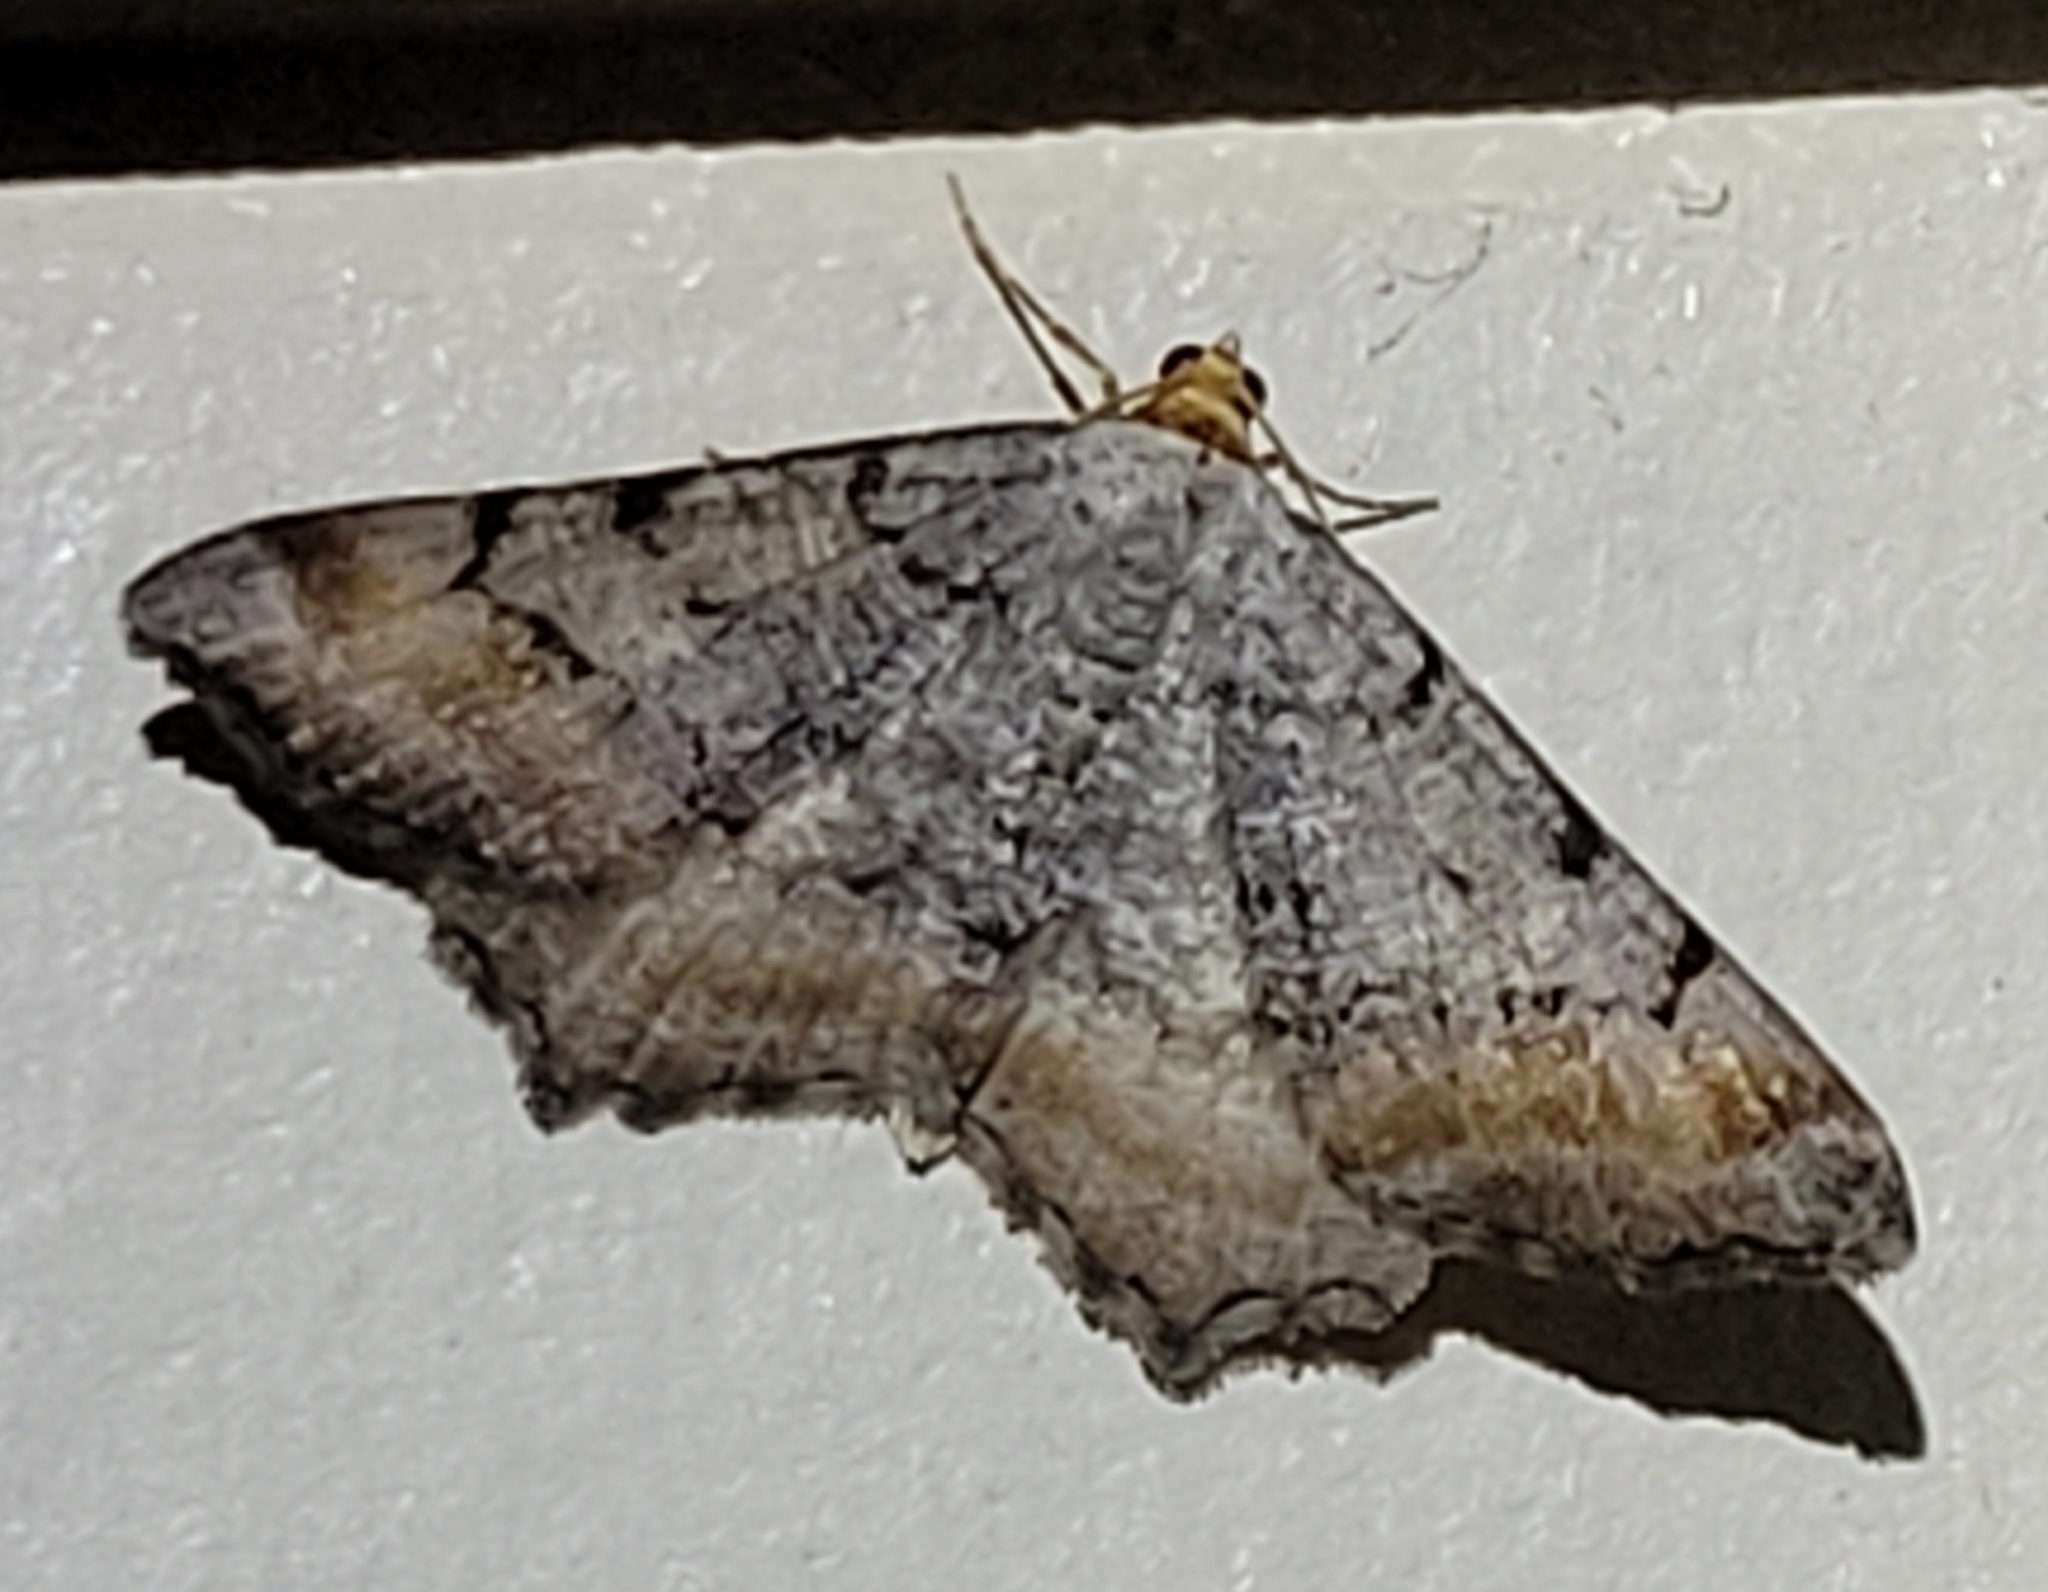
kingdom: Animalia
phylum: Arthropoda
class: Insecta
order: Lepidoptera
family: Geometridae
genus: Macaria
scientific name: Macaria adonis
